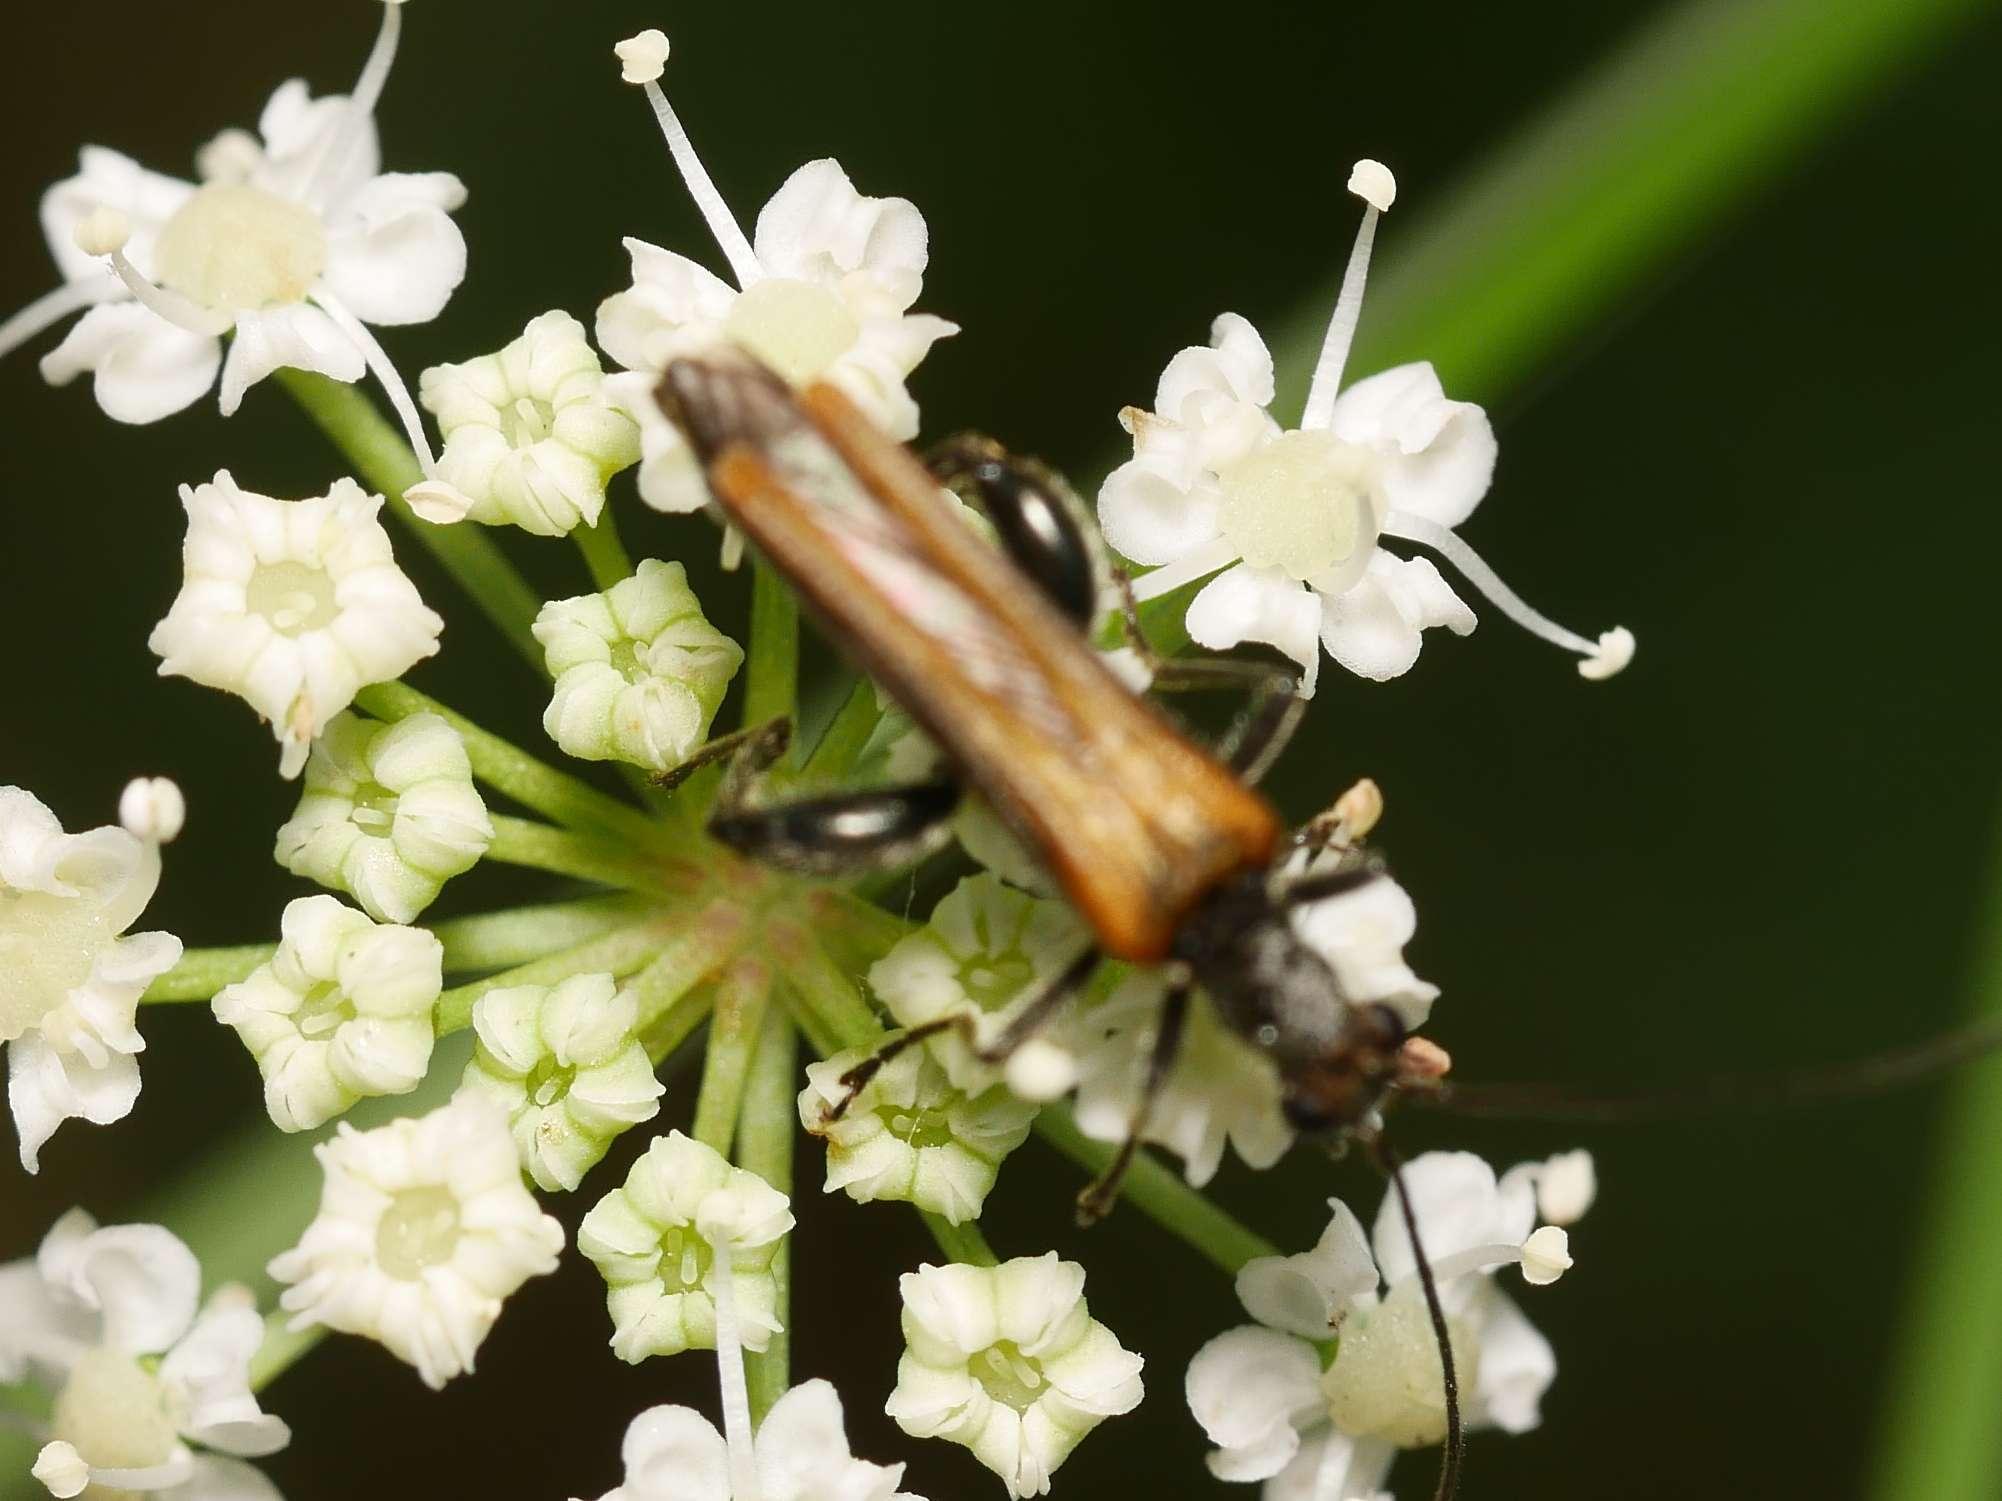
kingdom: Animalia
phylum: Arthropoda
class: Insecta
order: Coleoptera
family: Oedemeridae
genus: Oedemera
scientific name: Oedemera femorata
